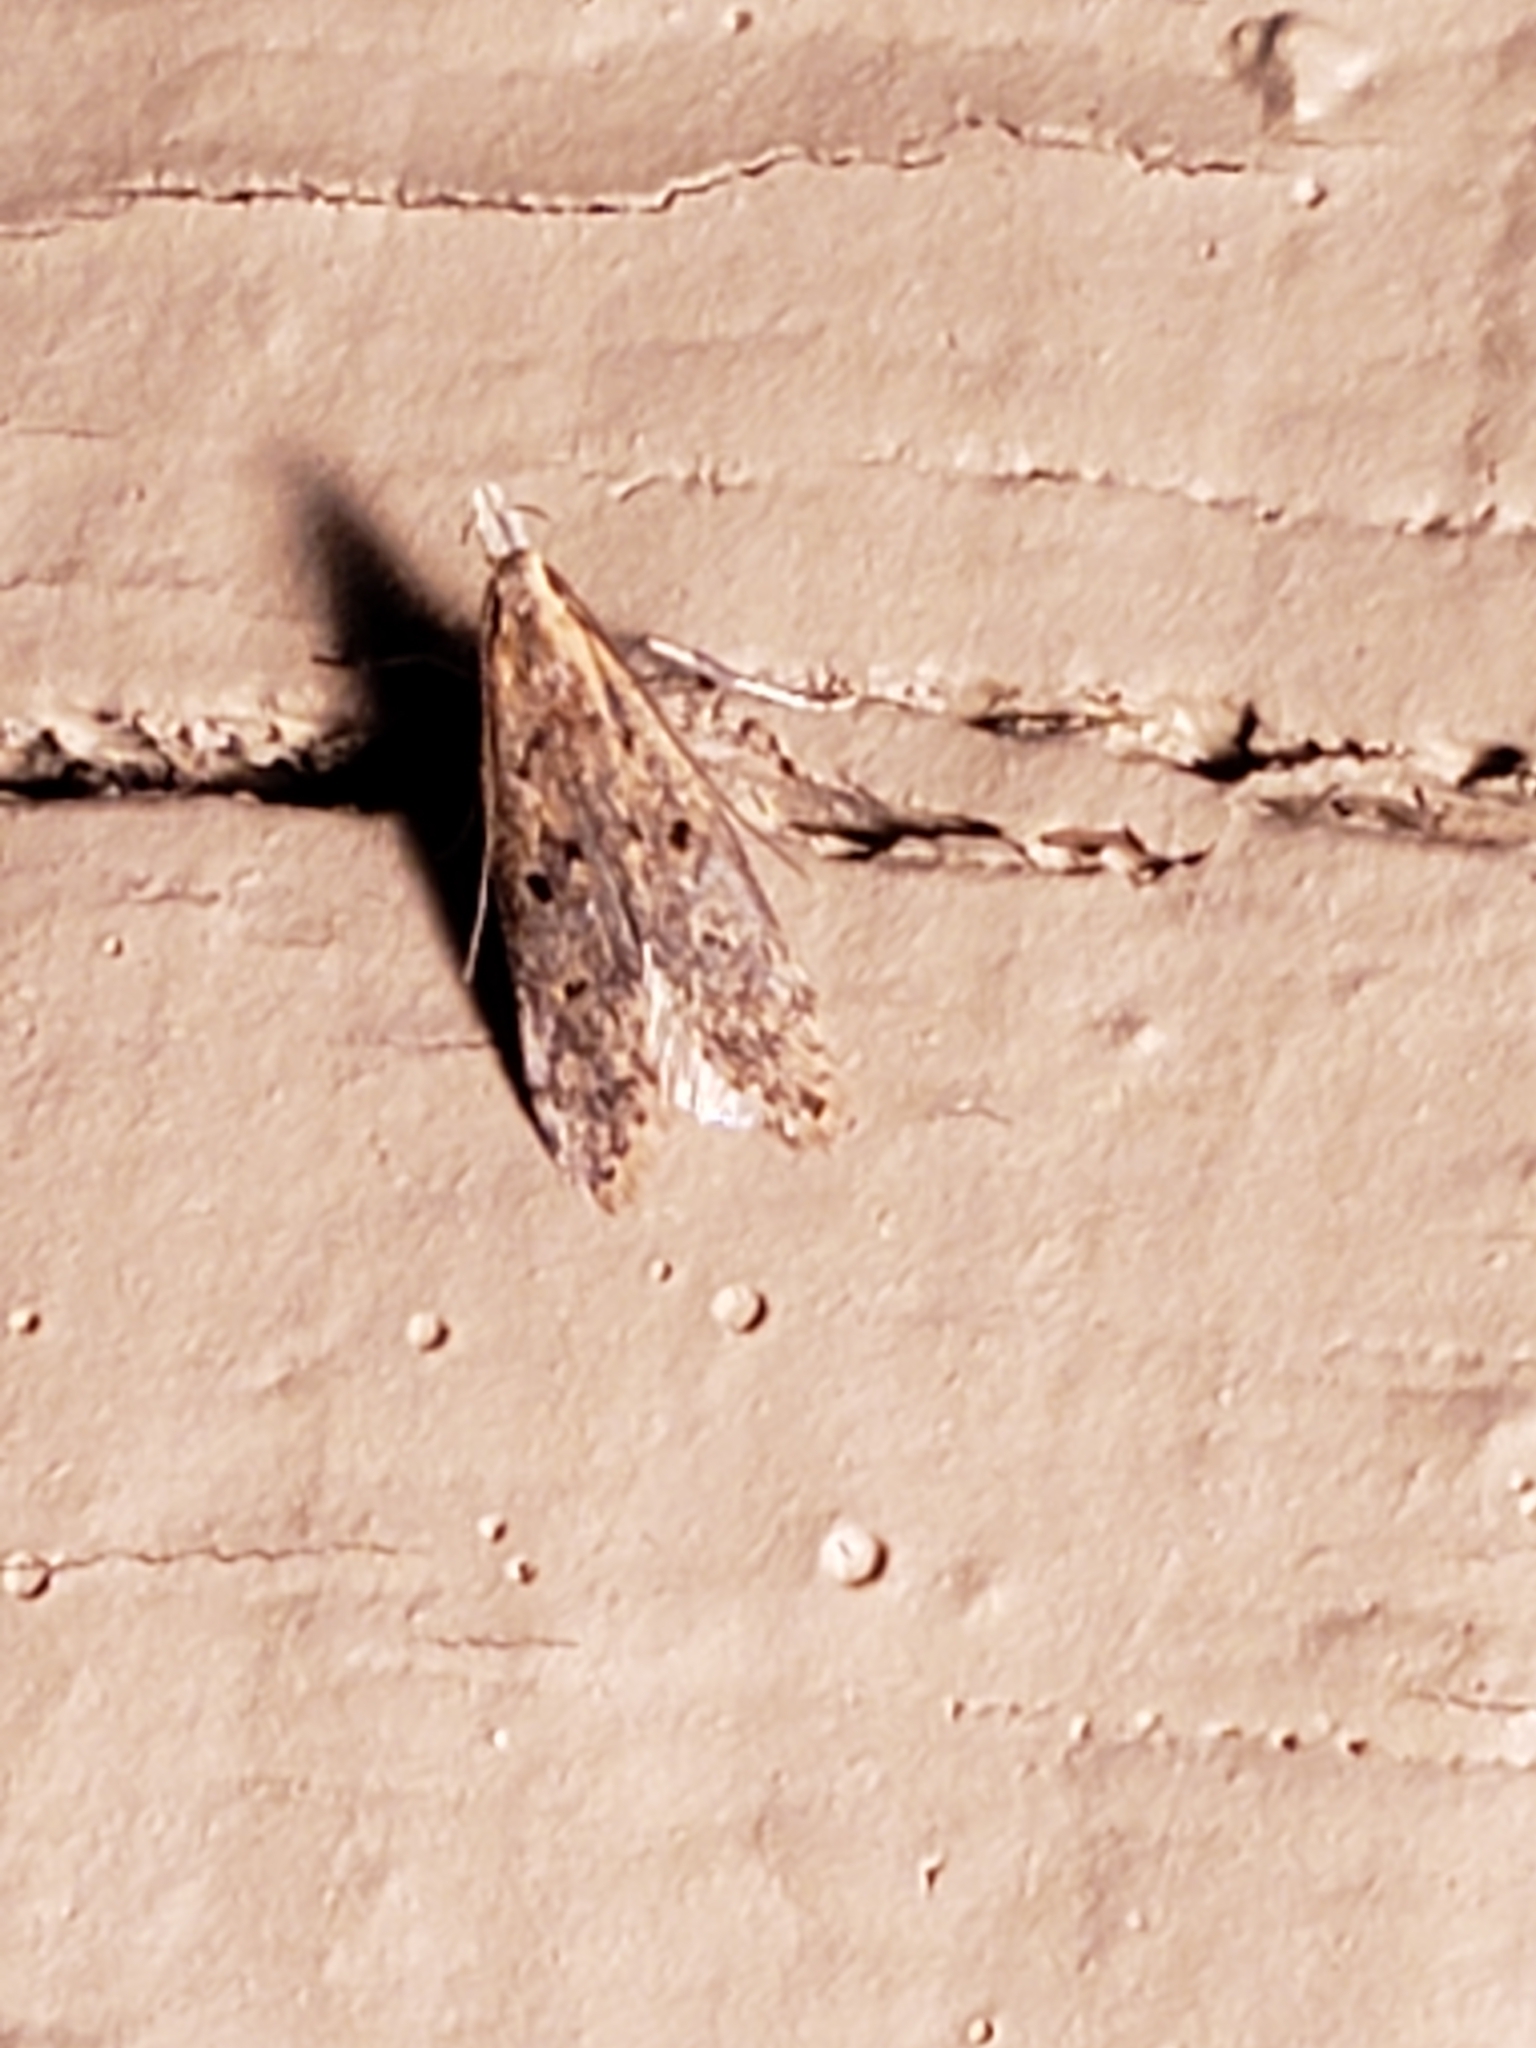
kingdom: Animalia
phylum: Arthropoda
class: Insecta
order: Lepidoptera
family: Gelechiidae
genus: Dichomeris
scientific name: Dichomeris punctipennella
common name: Many-spotted dichomeris moth
